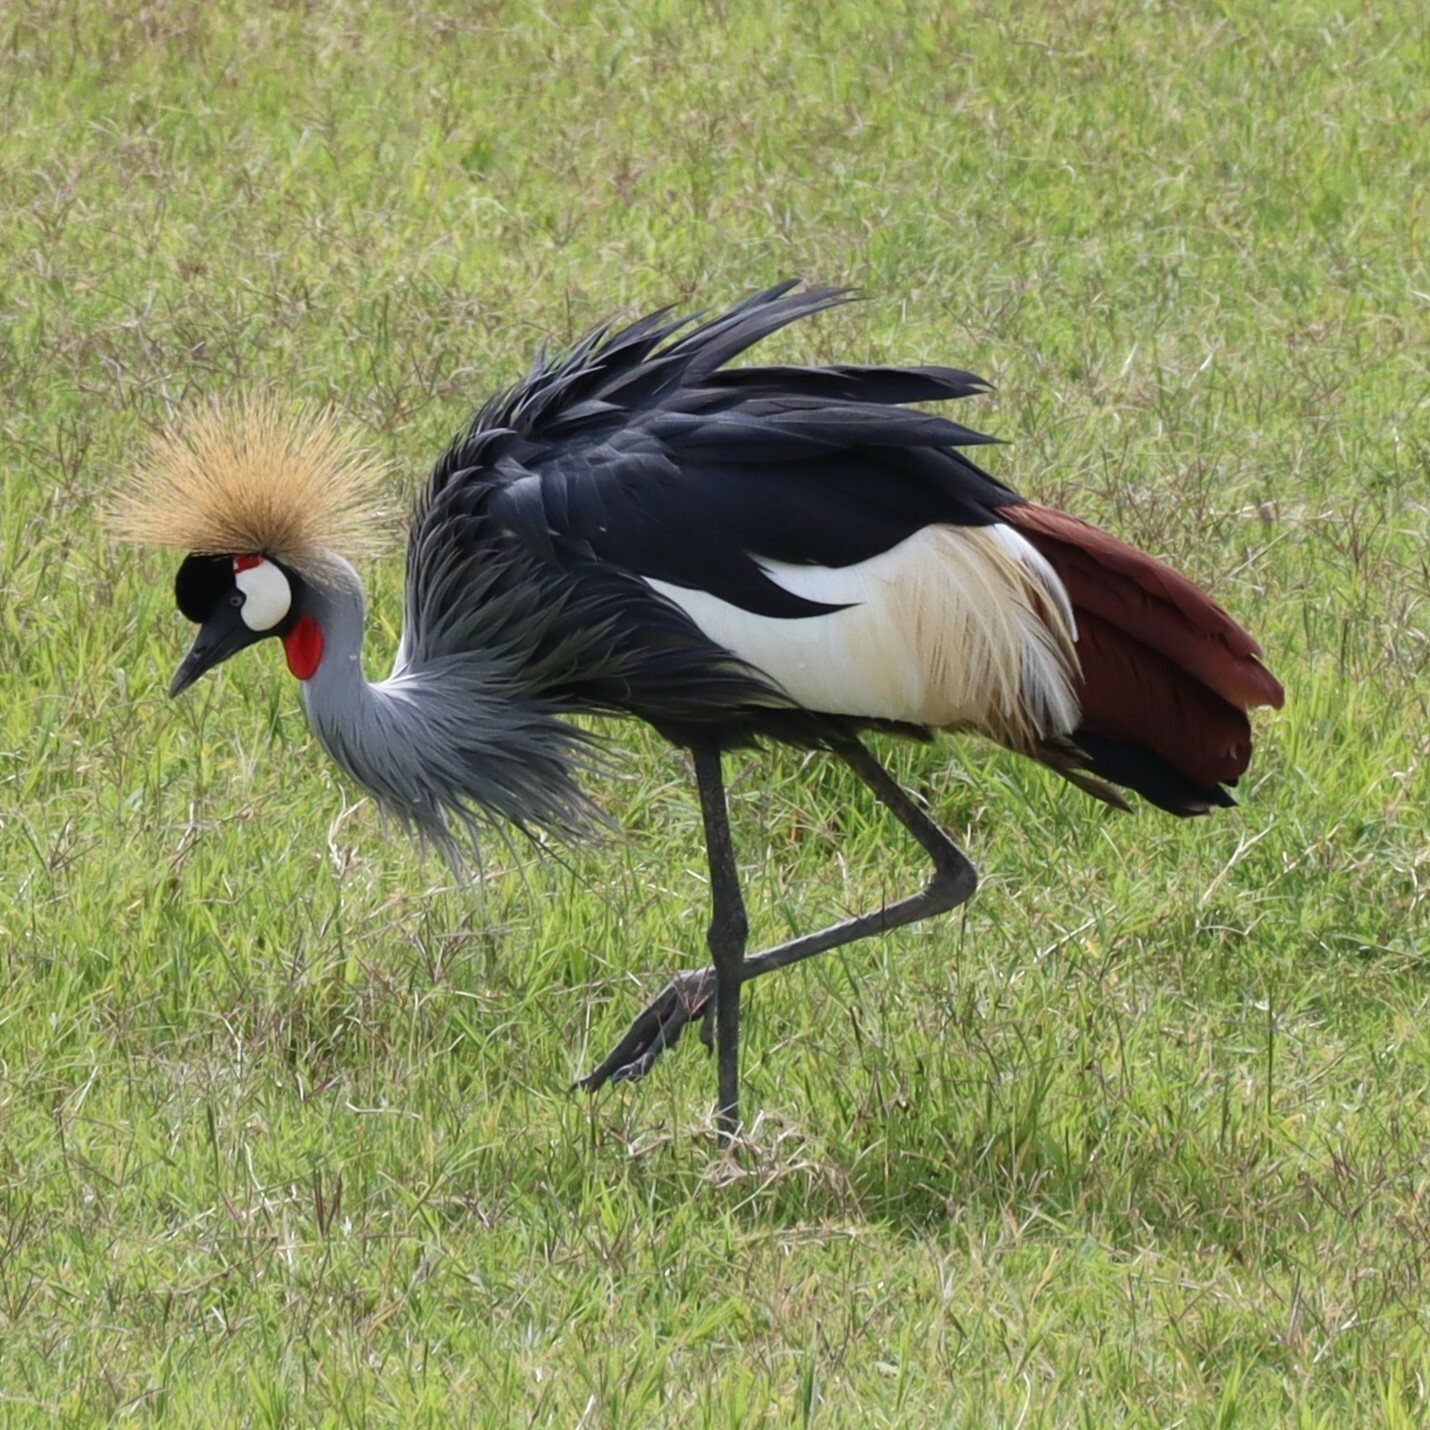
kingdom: Animalia
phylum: Chordata
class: Aves
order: Gruiformes
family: Gruidae
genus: Balearica
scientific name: Balearica regulorum
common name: Grey crowned crane
